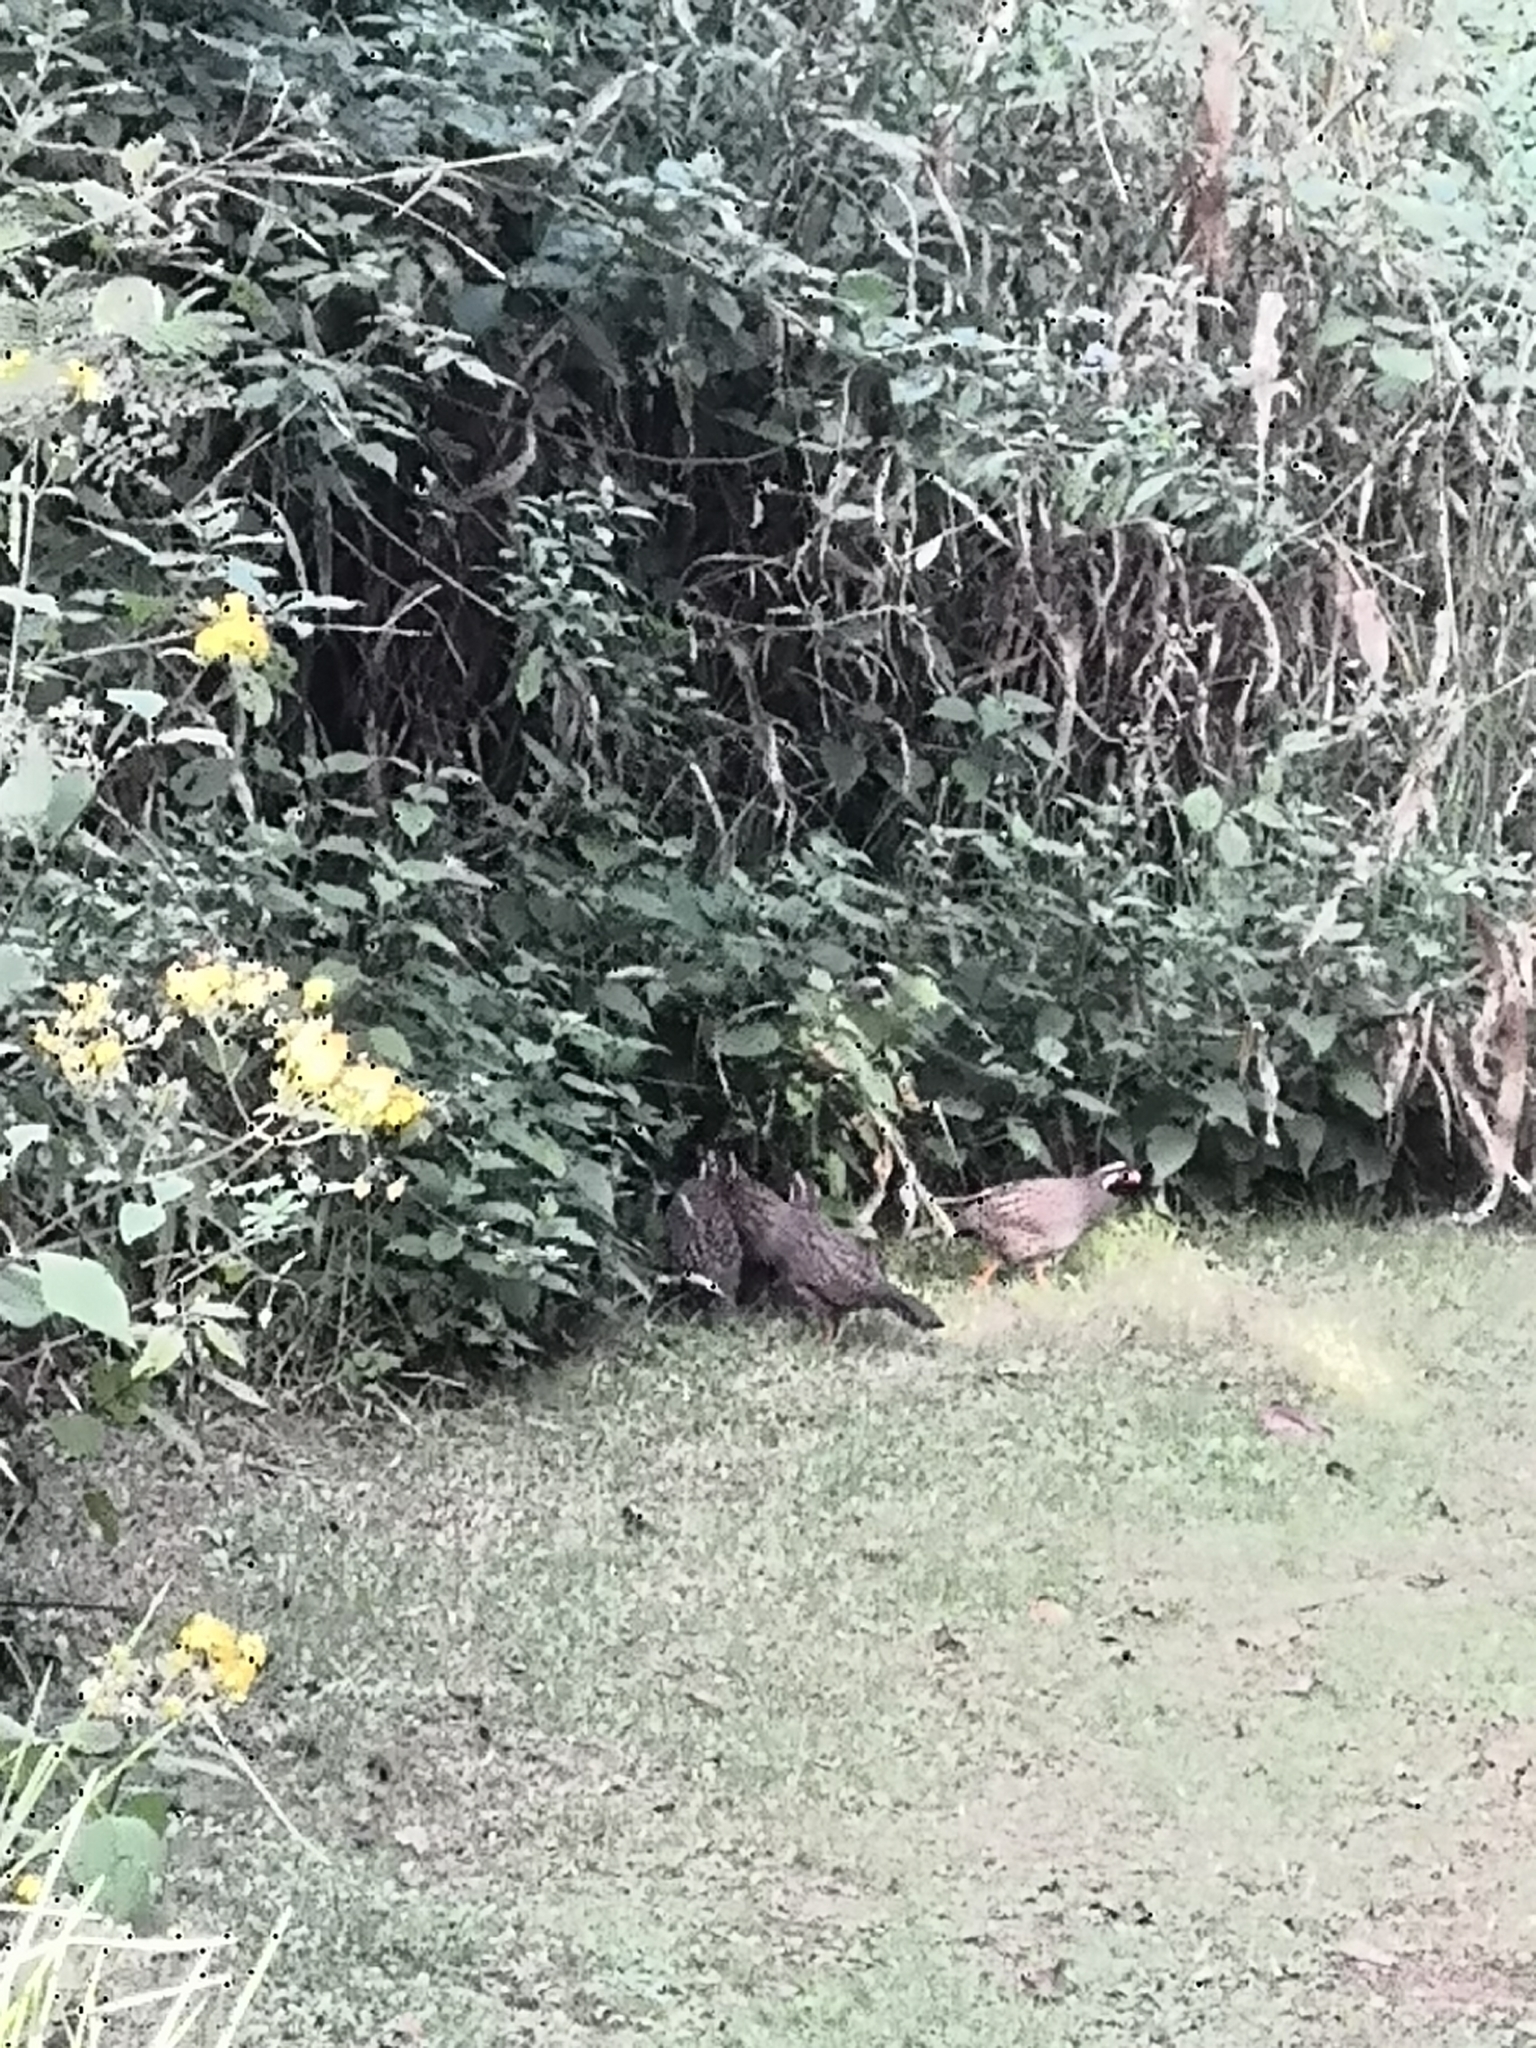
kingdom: Animalia
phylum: Chordata
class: Aves
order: Galliformes
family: Odontophoridae
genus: Dendrortyx
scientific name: Dendrortyx macroura
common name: Long-tailed wood-partridge
